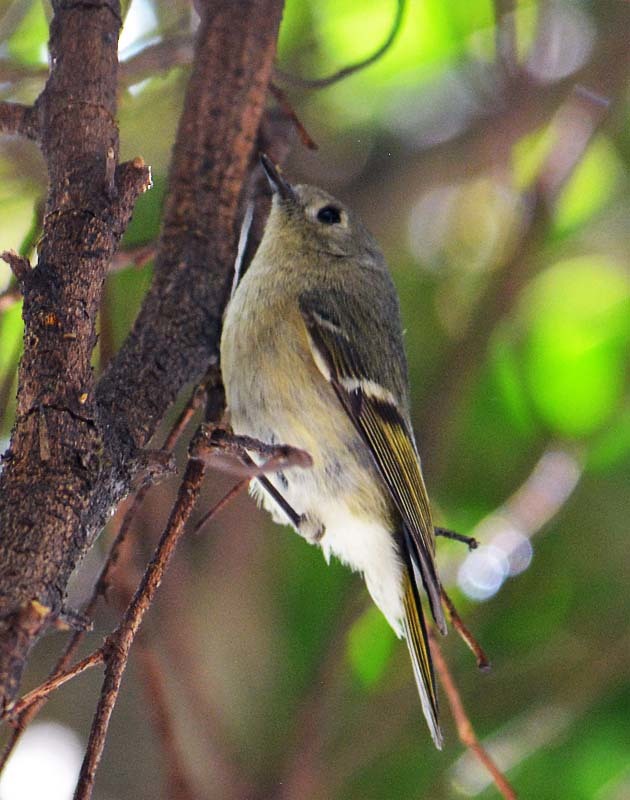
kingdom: Animalia
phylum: Chordata
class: Aves
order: Passeriformes
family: Regulidae
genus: Regulus
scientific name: Regulus calendula
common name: Ruby-crowned kinglet
